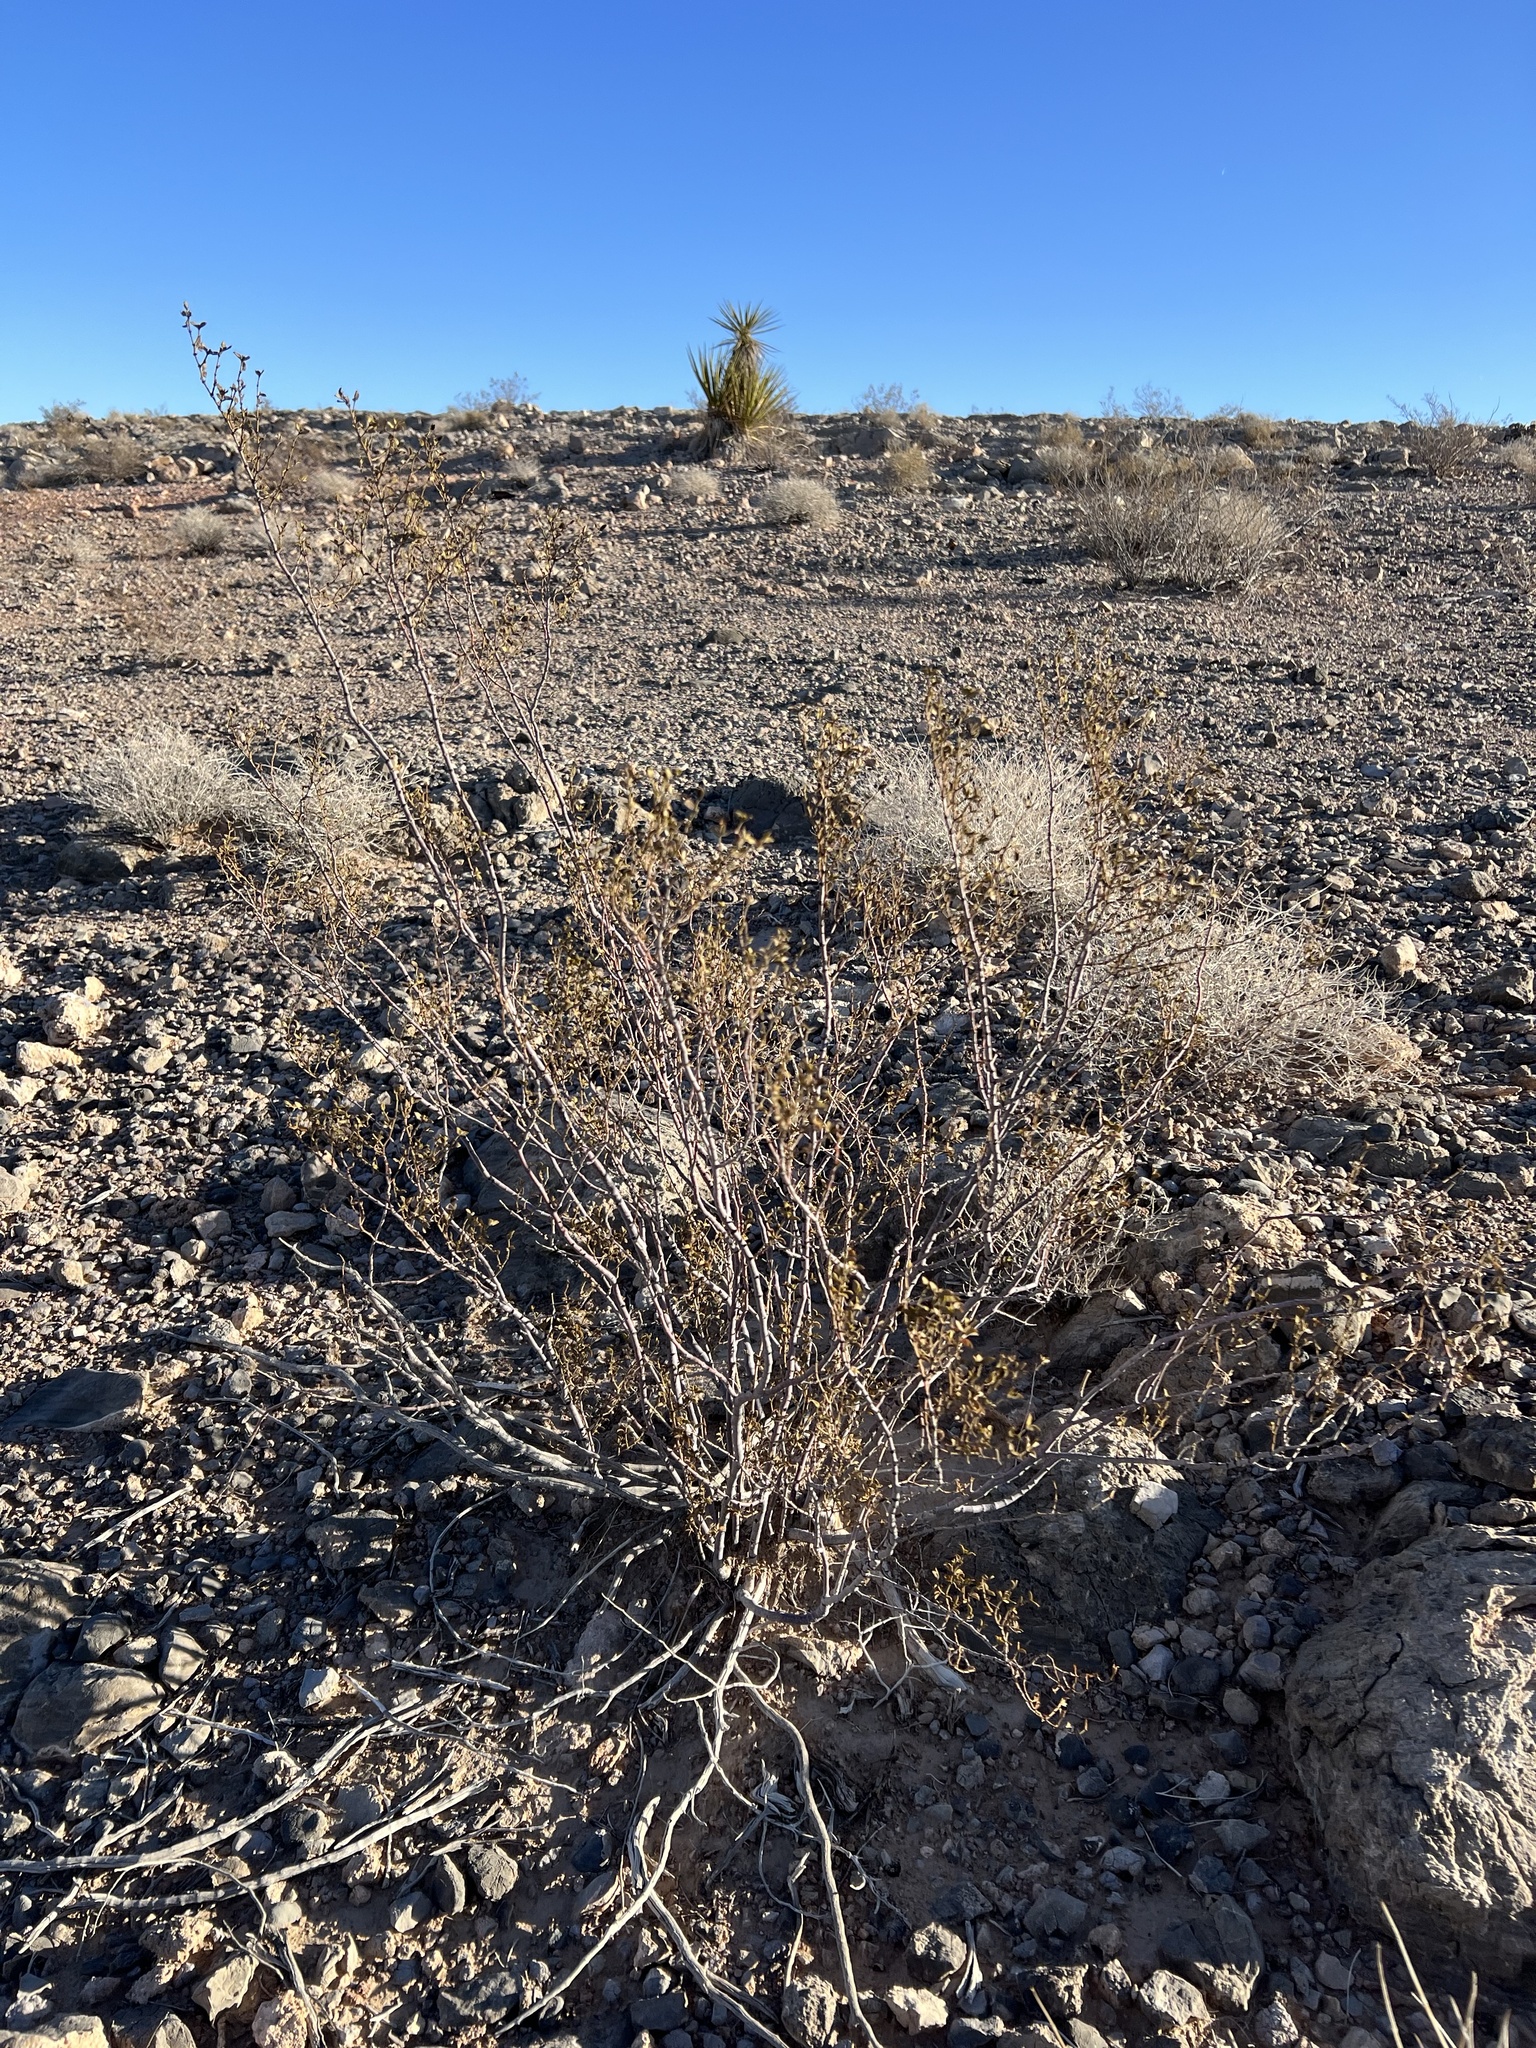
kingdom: Plantae
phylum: Tracheophyta
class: Magnoliopsida
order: Zygophyllales
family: Zygophyllaceae
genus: Larrea
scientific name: Larrea tridentata
